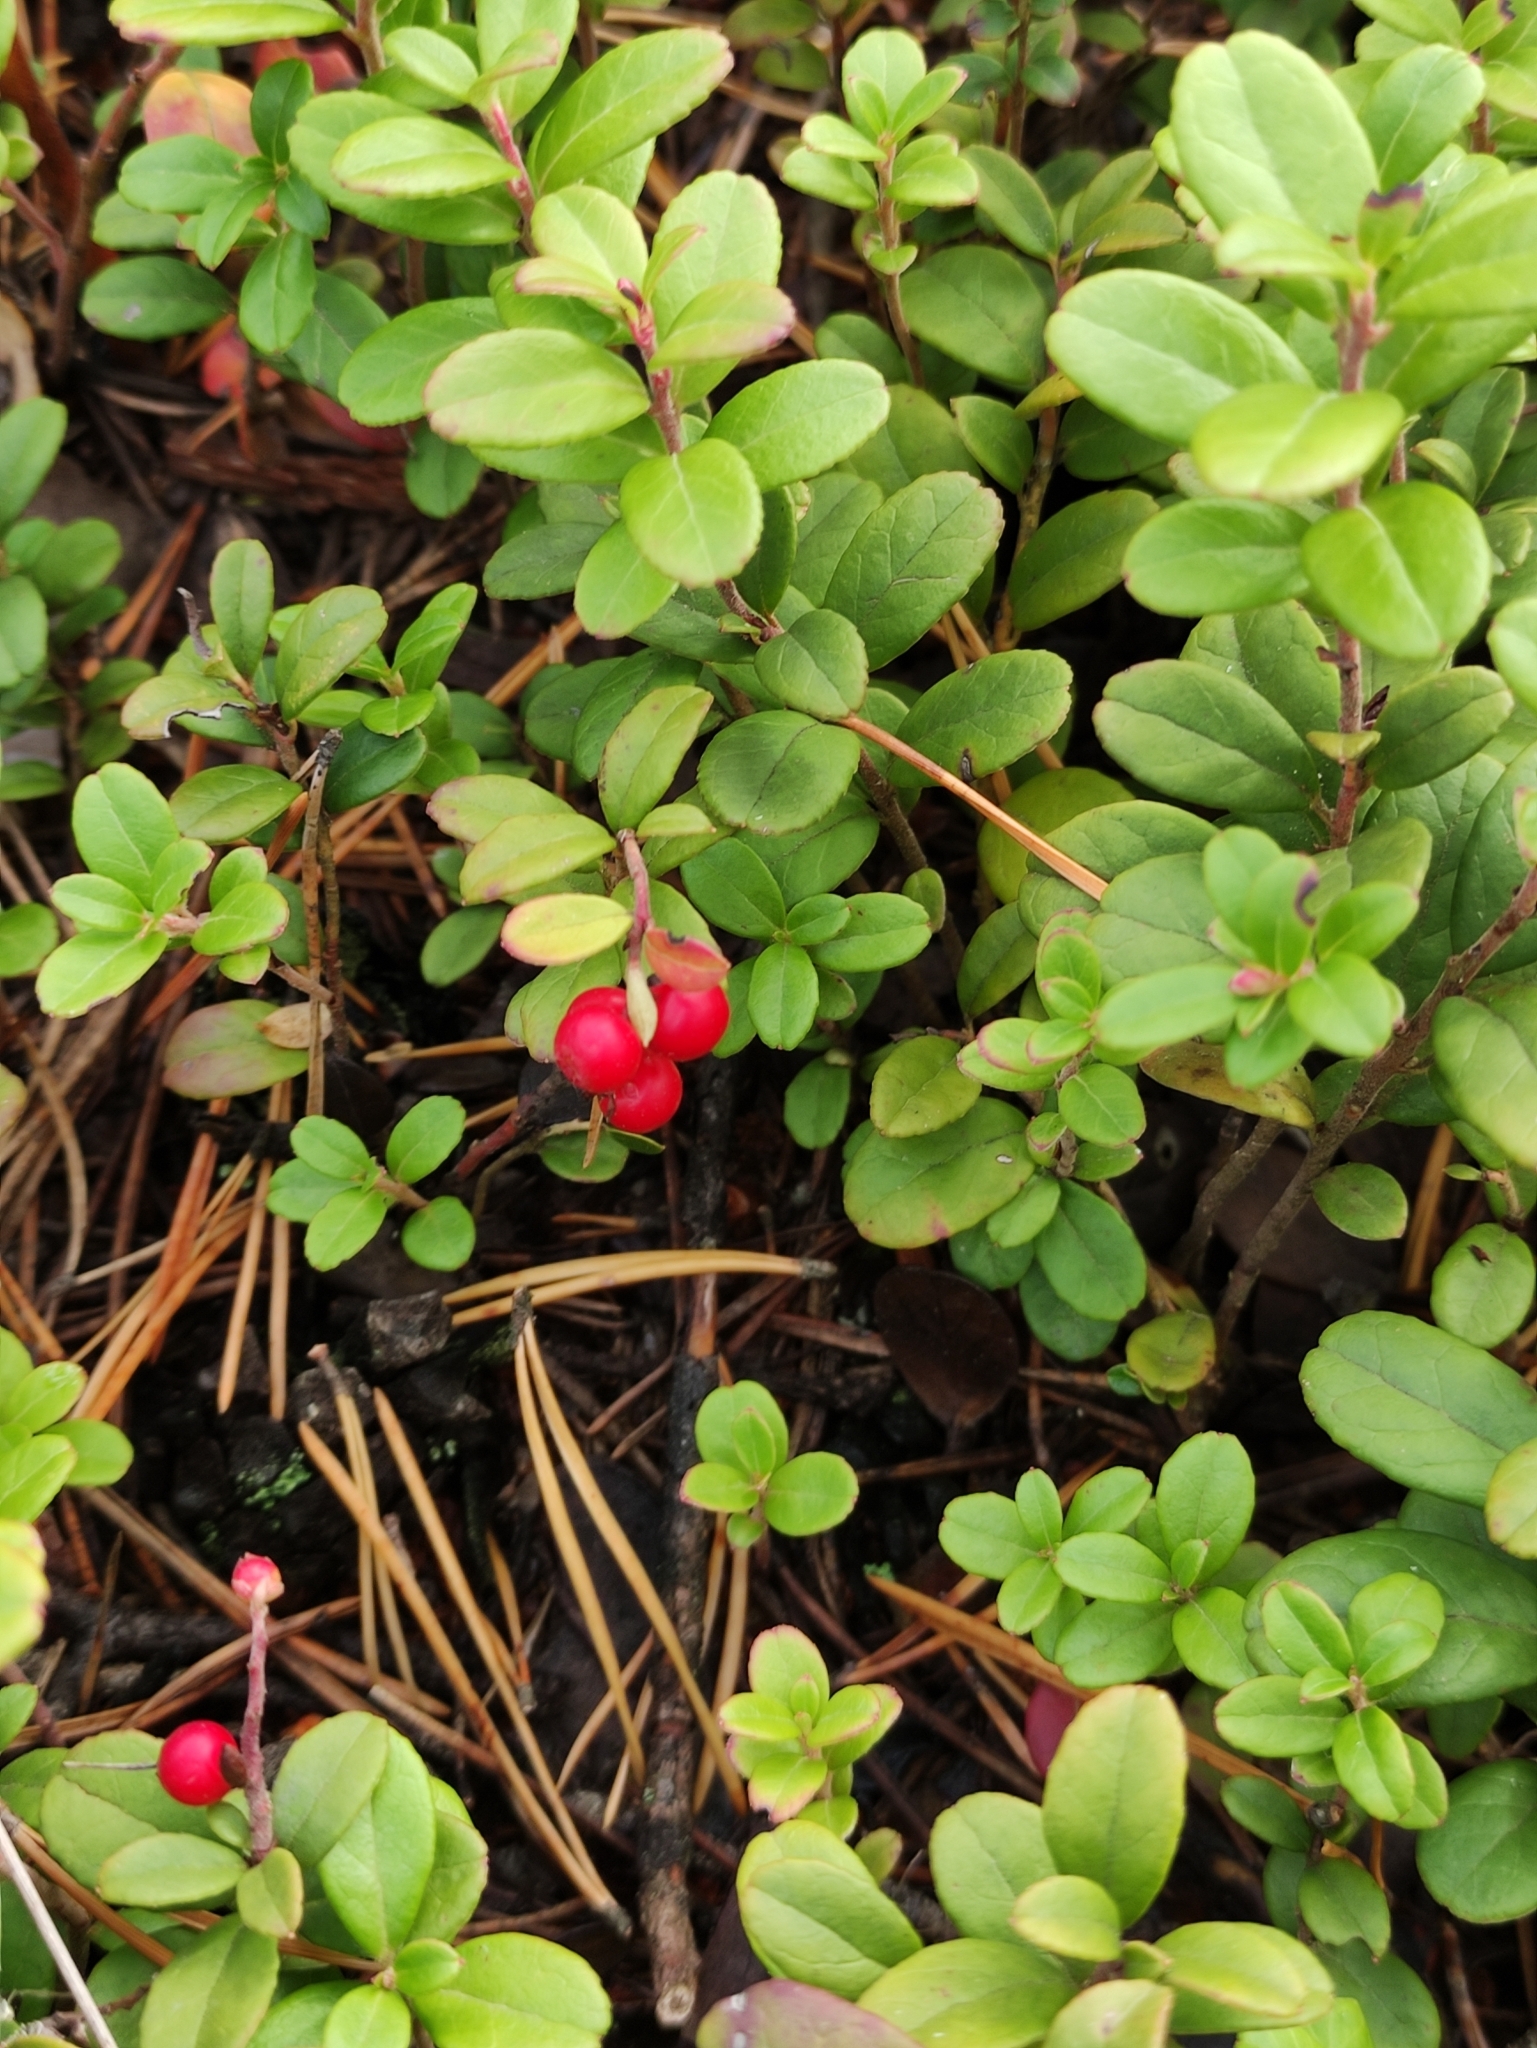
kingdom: Plantae
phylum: Tracheophyta
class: Magnoliopsida
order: Ericales
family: Ericaceae
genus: Vaccinium
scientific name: Vaccinium vitis-idaea
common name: Cowberry
